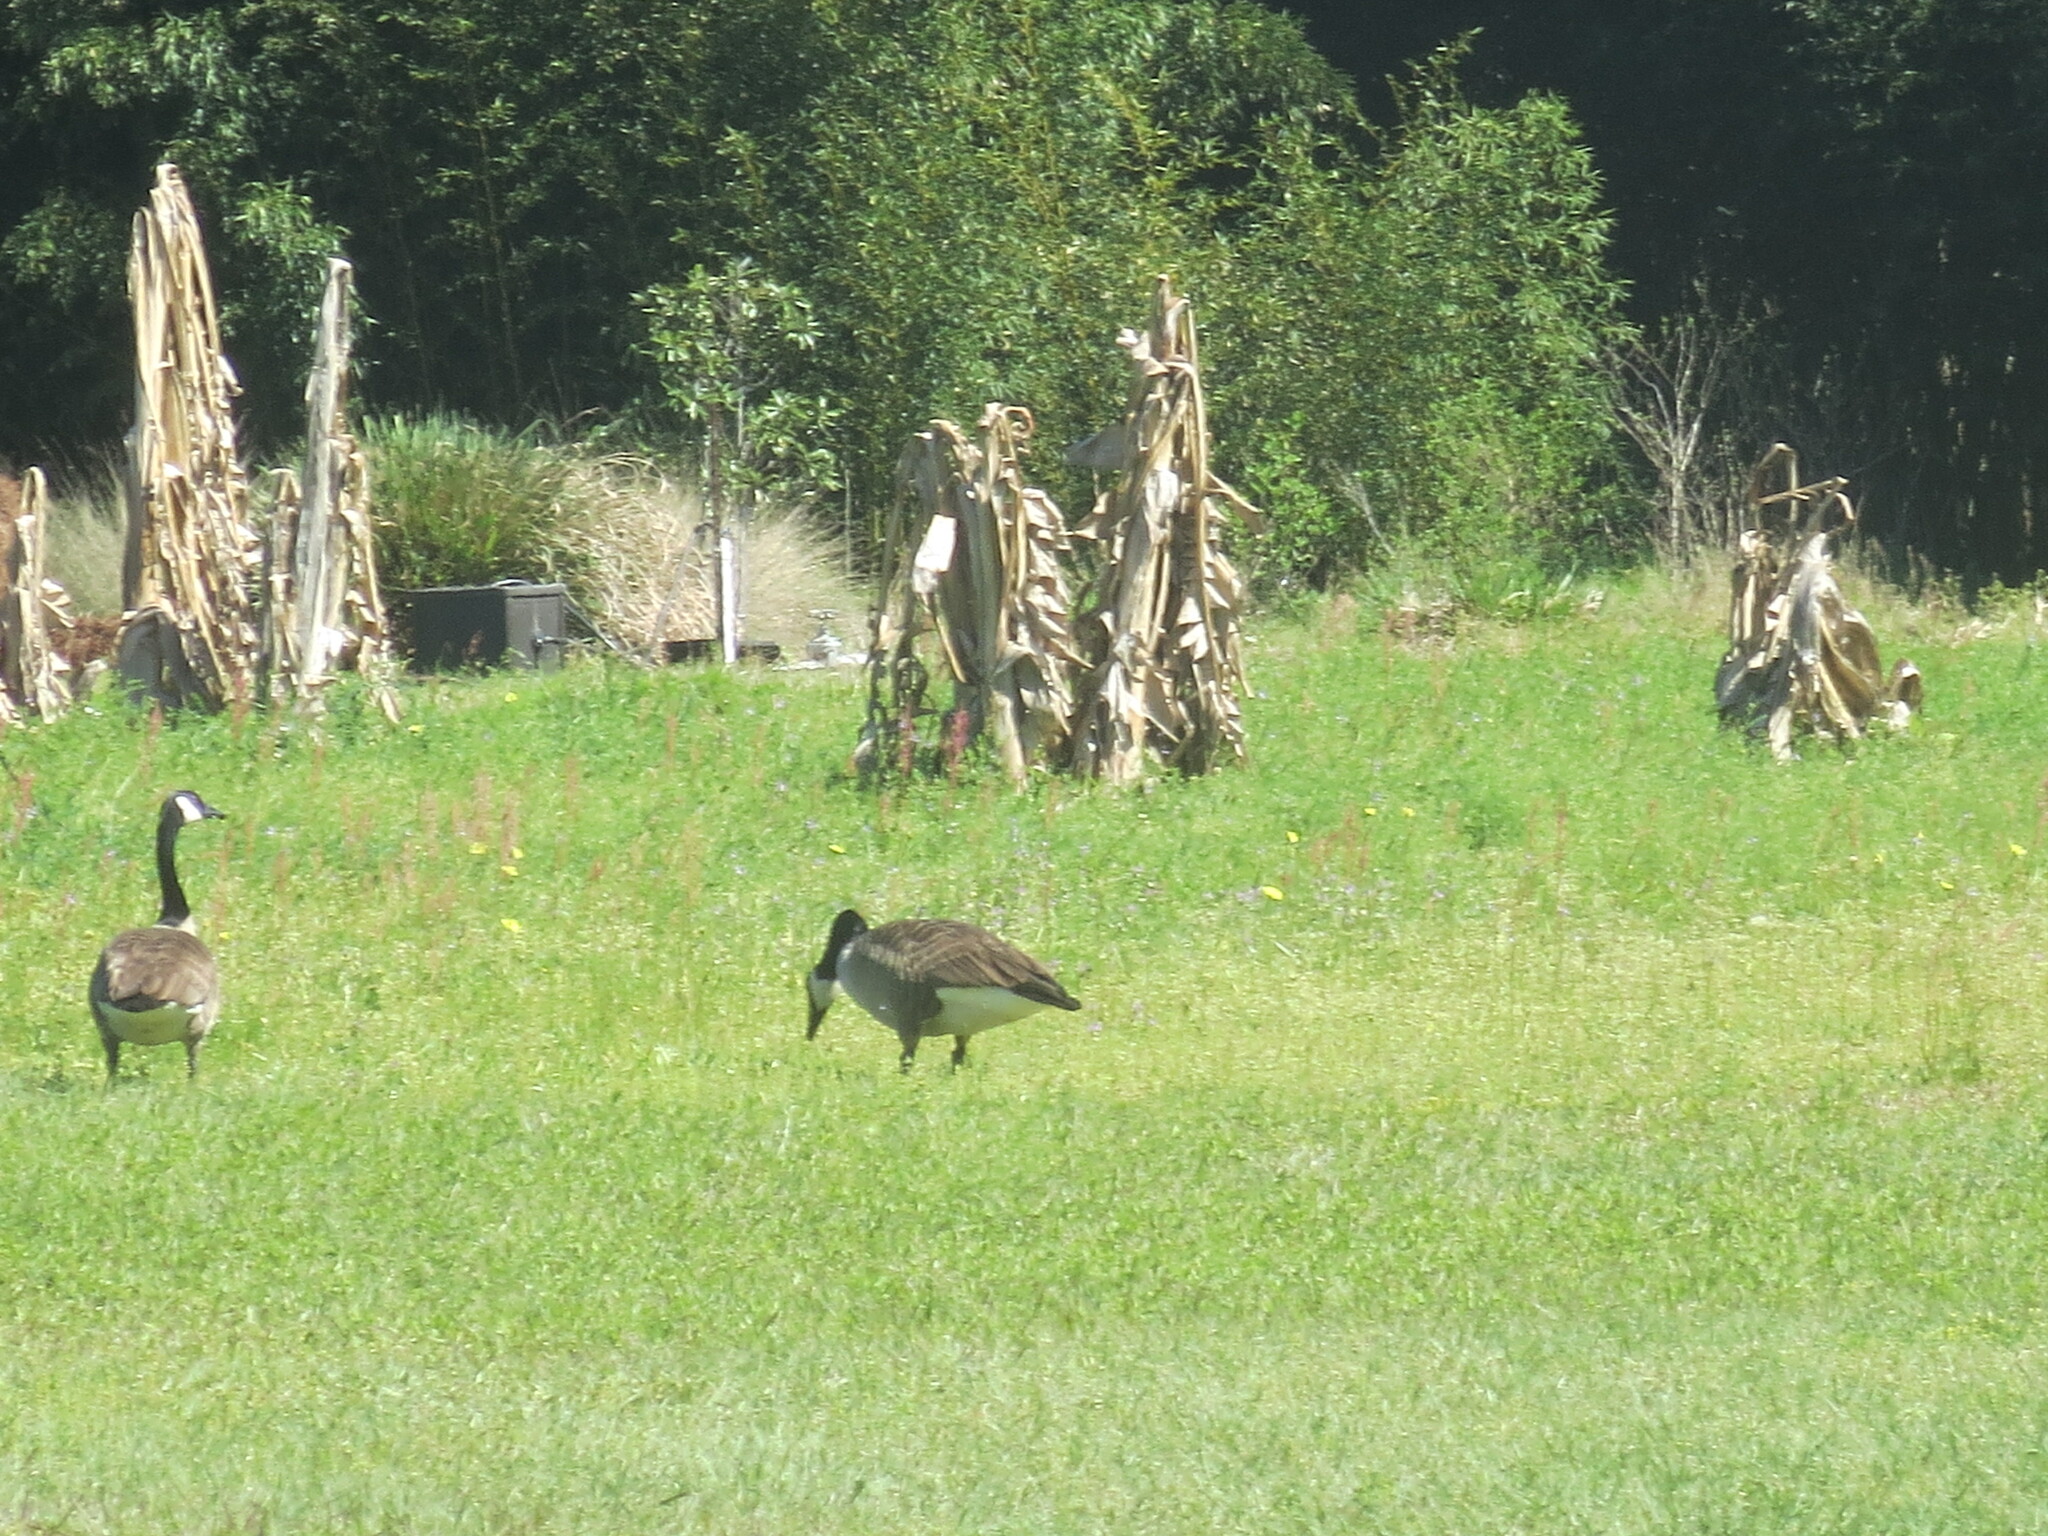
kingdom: Animalia
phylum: Chordata
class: Aves
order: Anseriformes
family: Anatidae
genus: Branta
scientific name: Branta canadensis
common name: Canada goose
